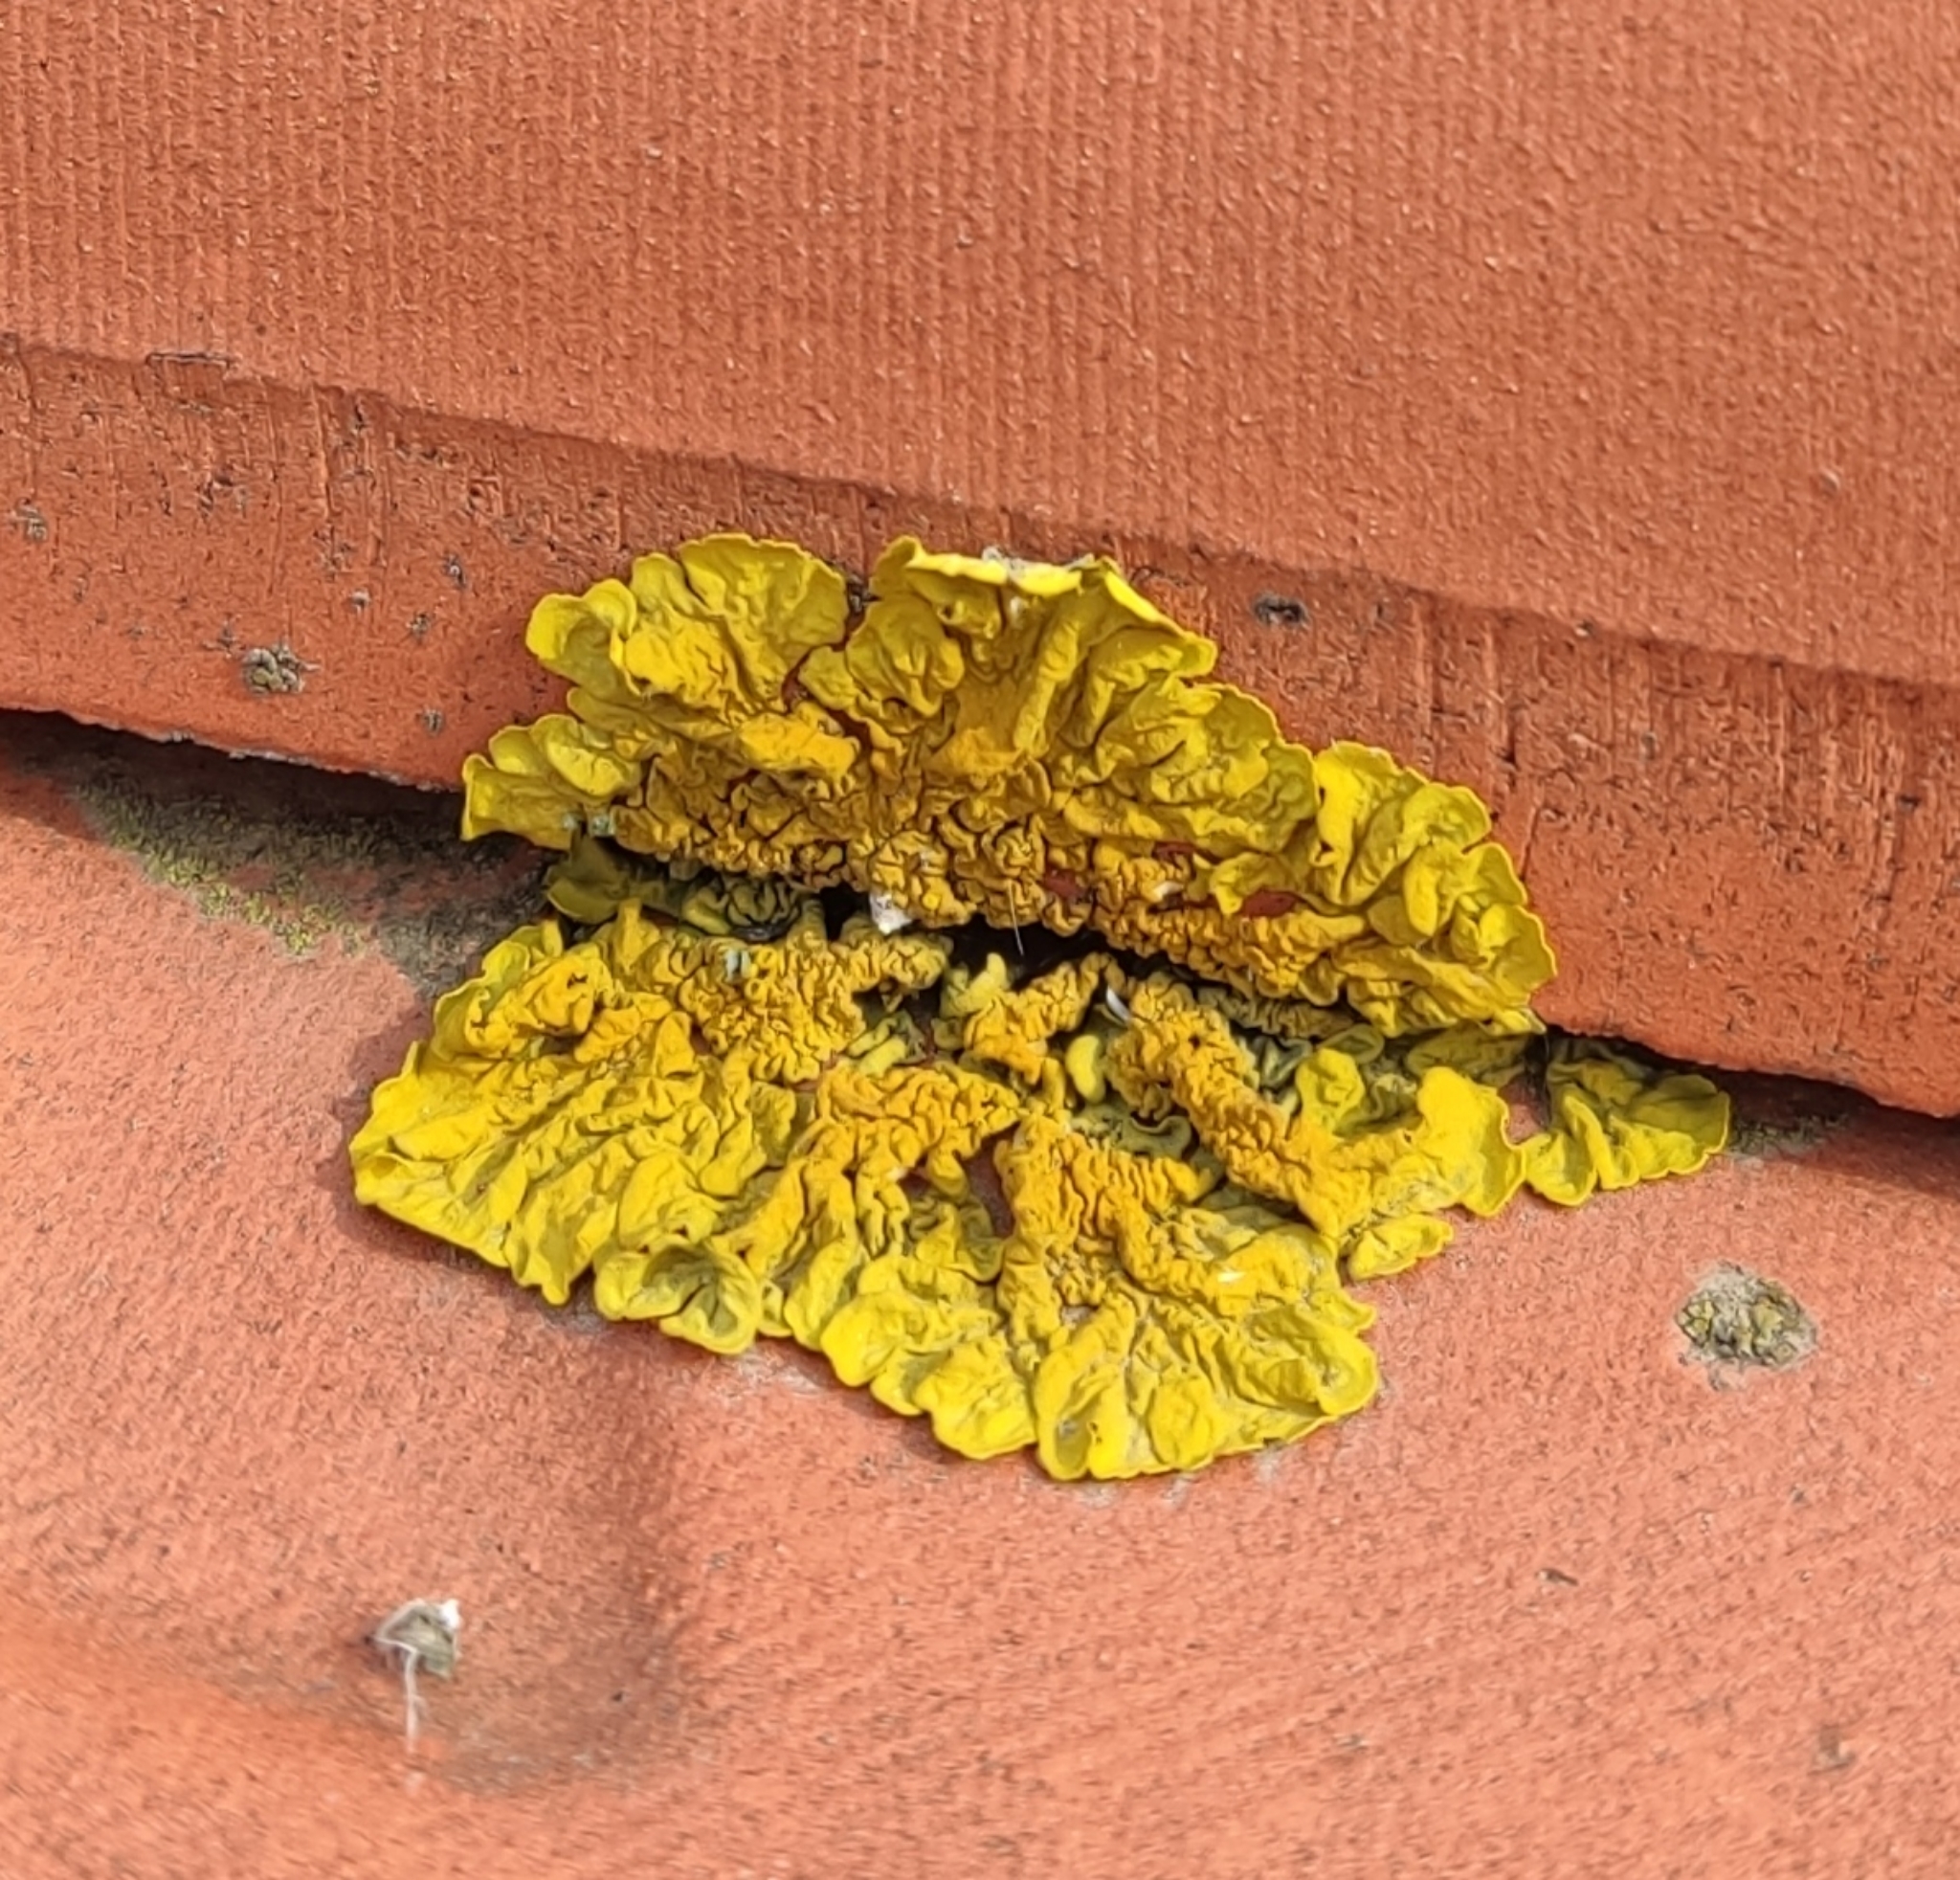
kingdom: Fungi
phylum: Ascomycota
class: Lecanoromycetes
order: Teloschistales
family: Teloschistaceae
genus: Xanthoria
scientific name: Xanthoria parietina
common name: Common orange lichen
